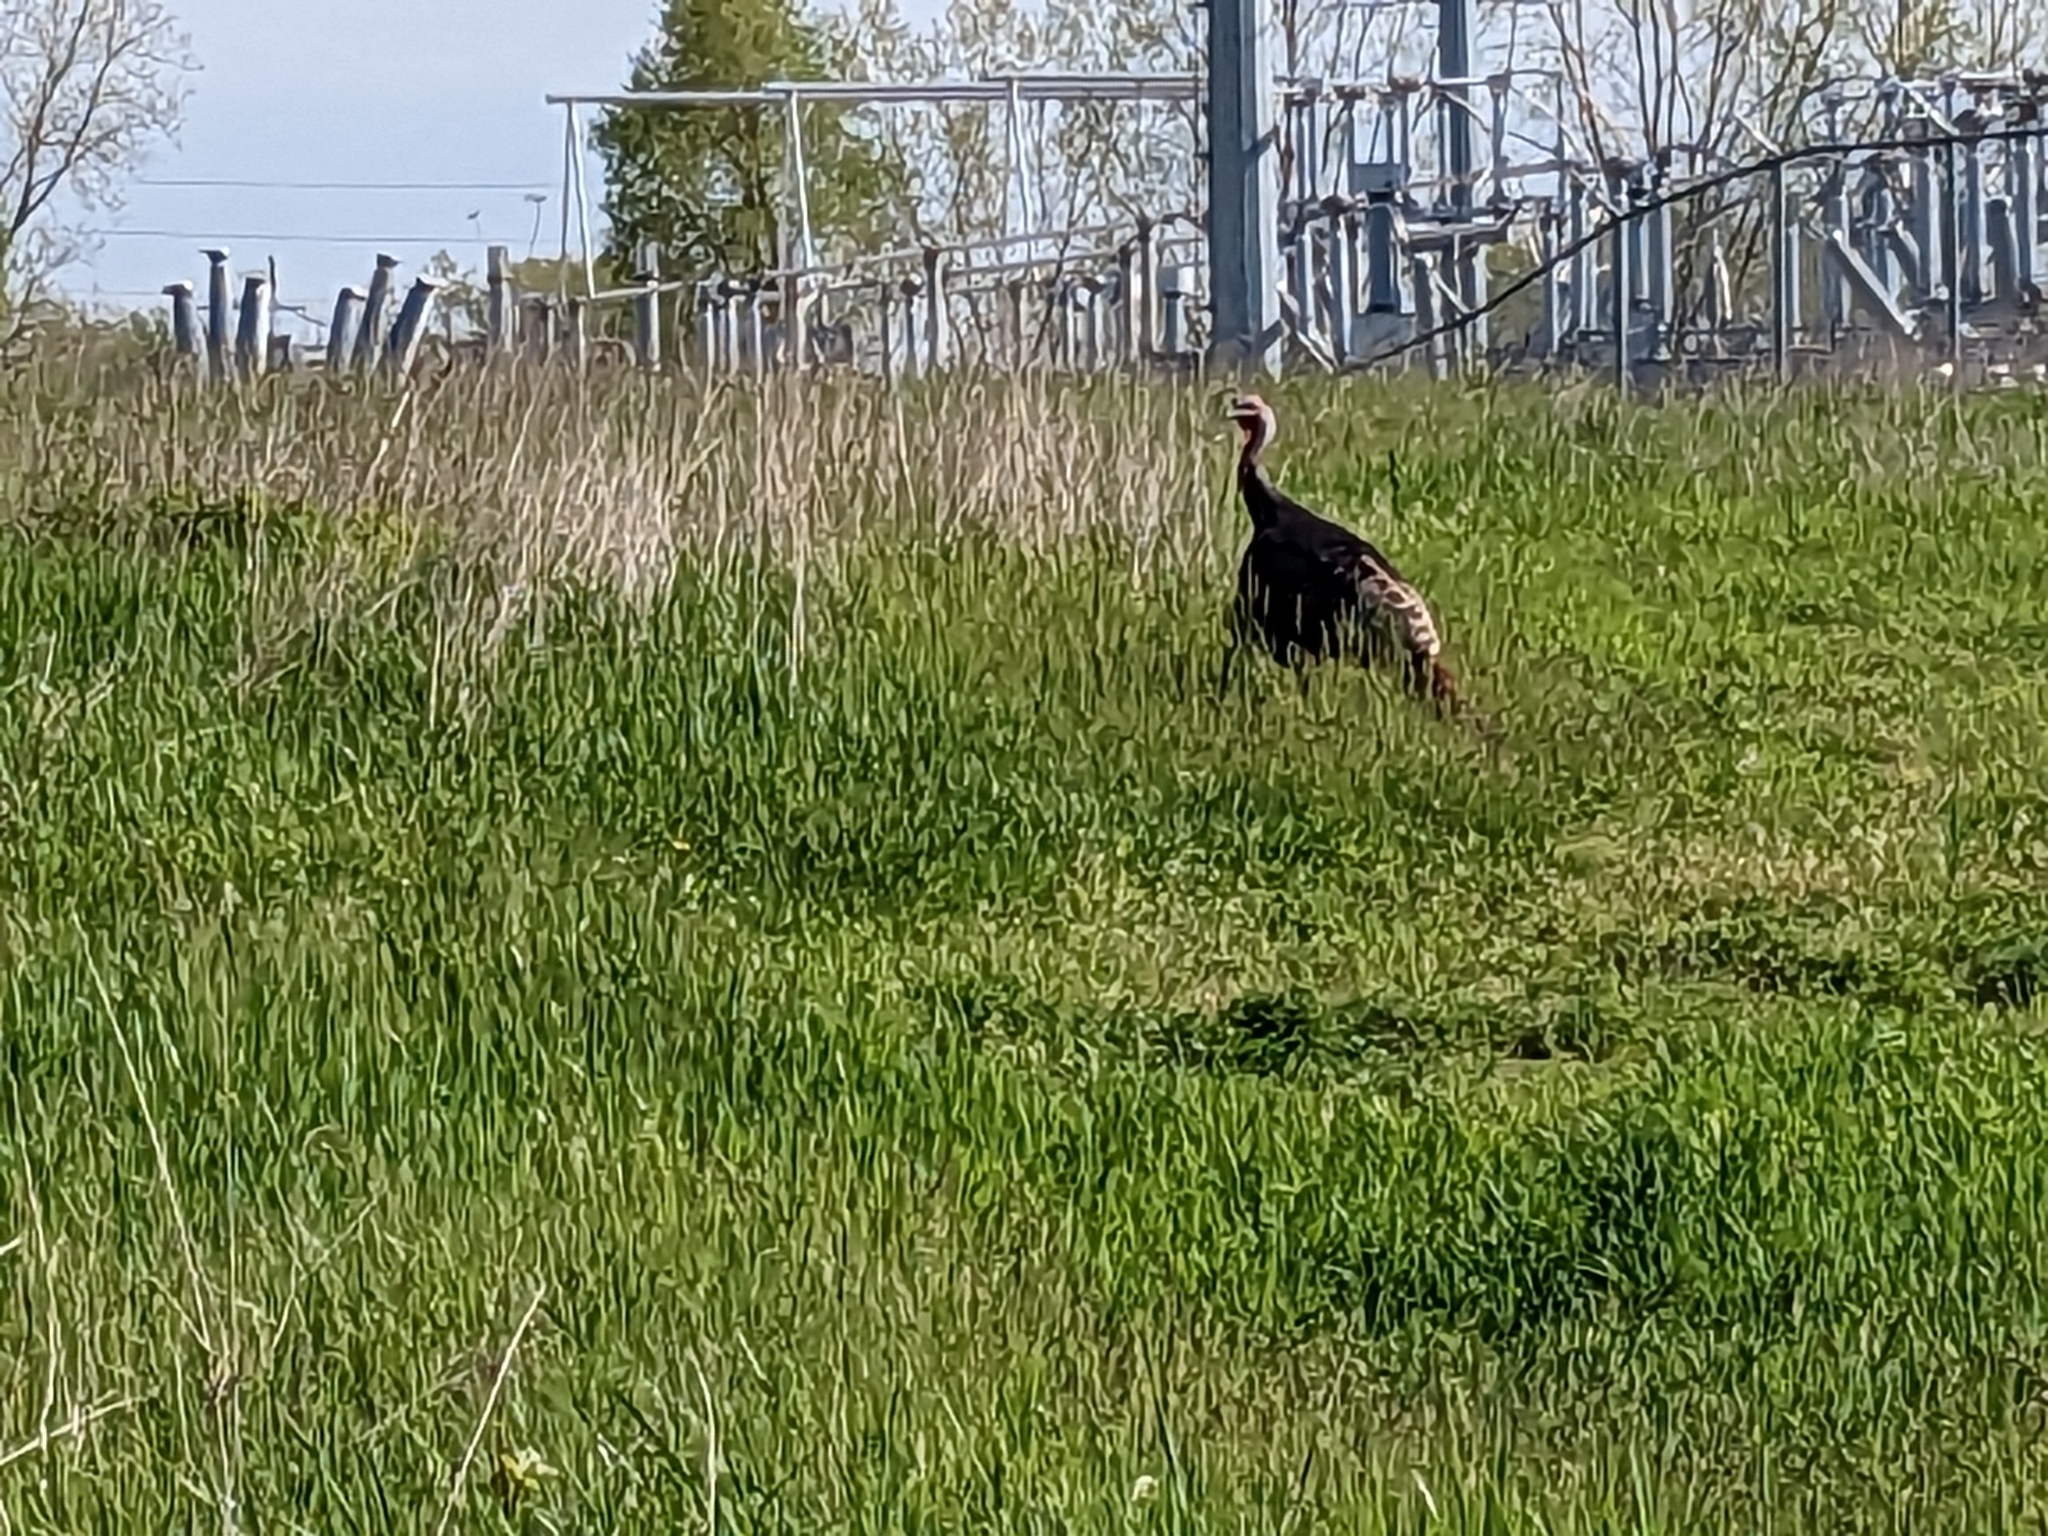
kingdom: Animalia
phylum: Chordata
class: Aves
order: Galliformes
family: Phasianidae
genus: Meleagris
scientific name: Meleagris gallopavo
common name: Wild turkey
